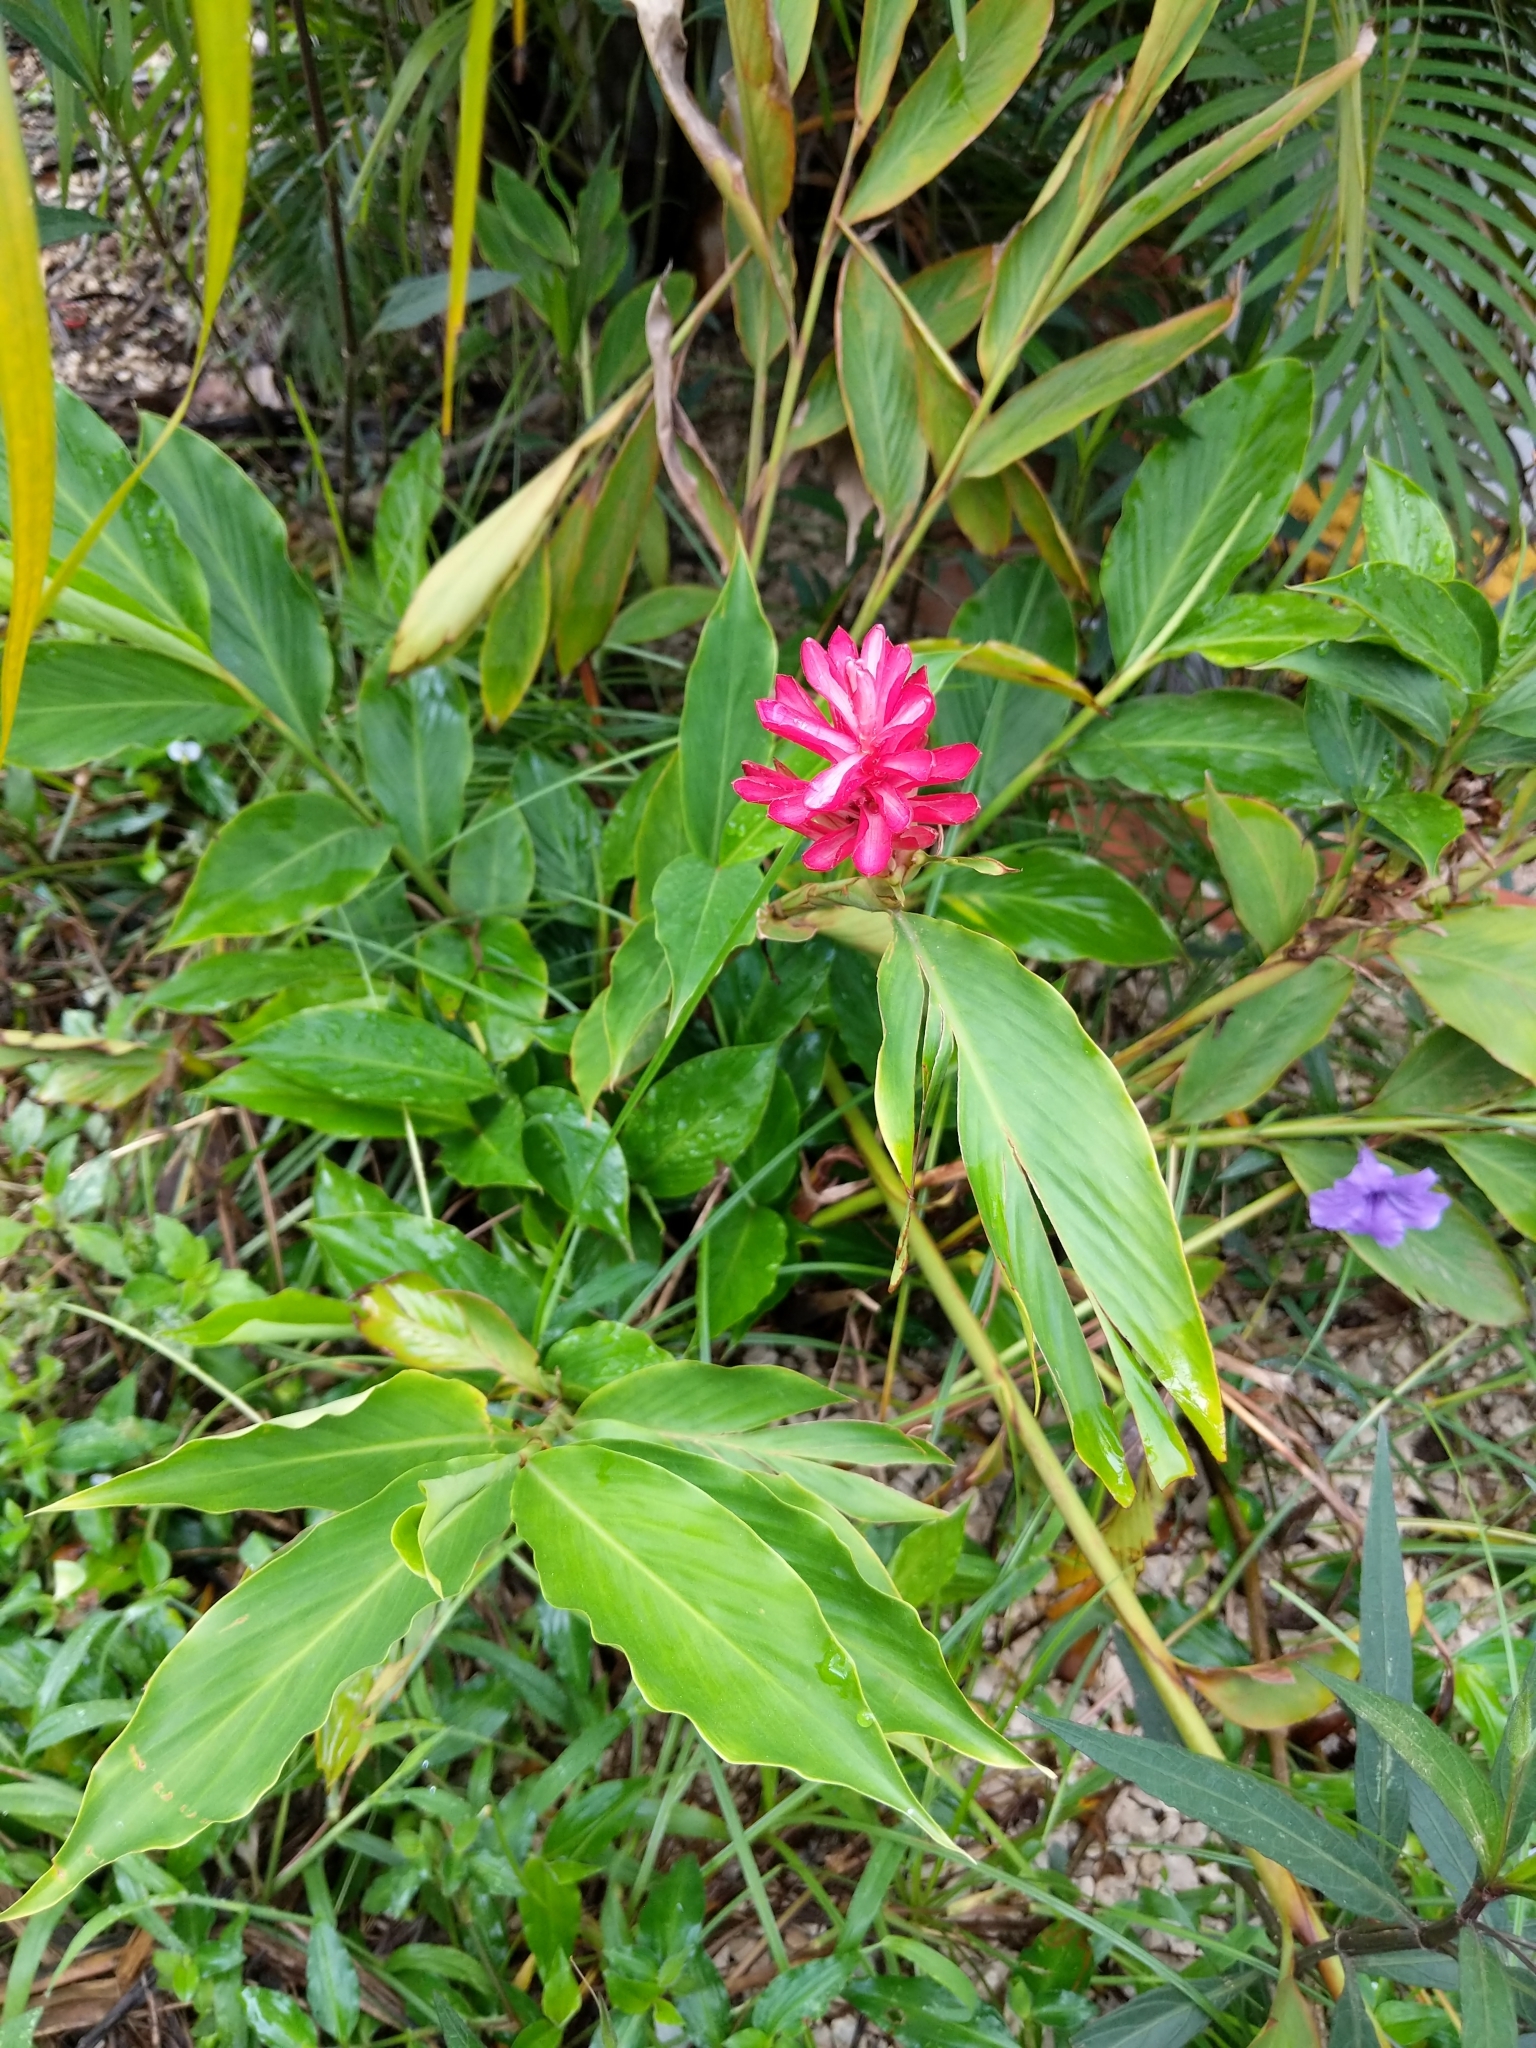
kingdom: Plantae
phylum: Tracheophyta
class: Liliopsida
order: Zingiberales
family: Zingiberaceae
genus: Alpinia
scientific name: Alpinia purpurata
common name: Red ginger
